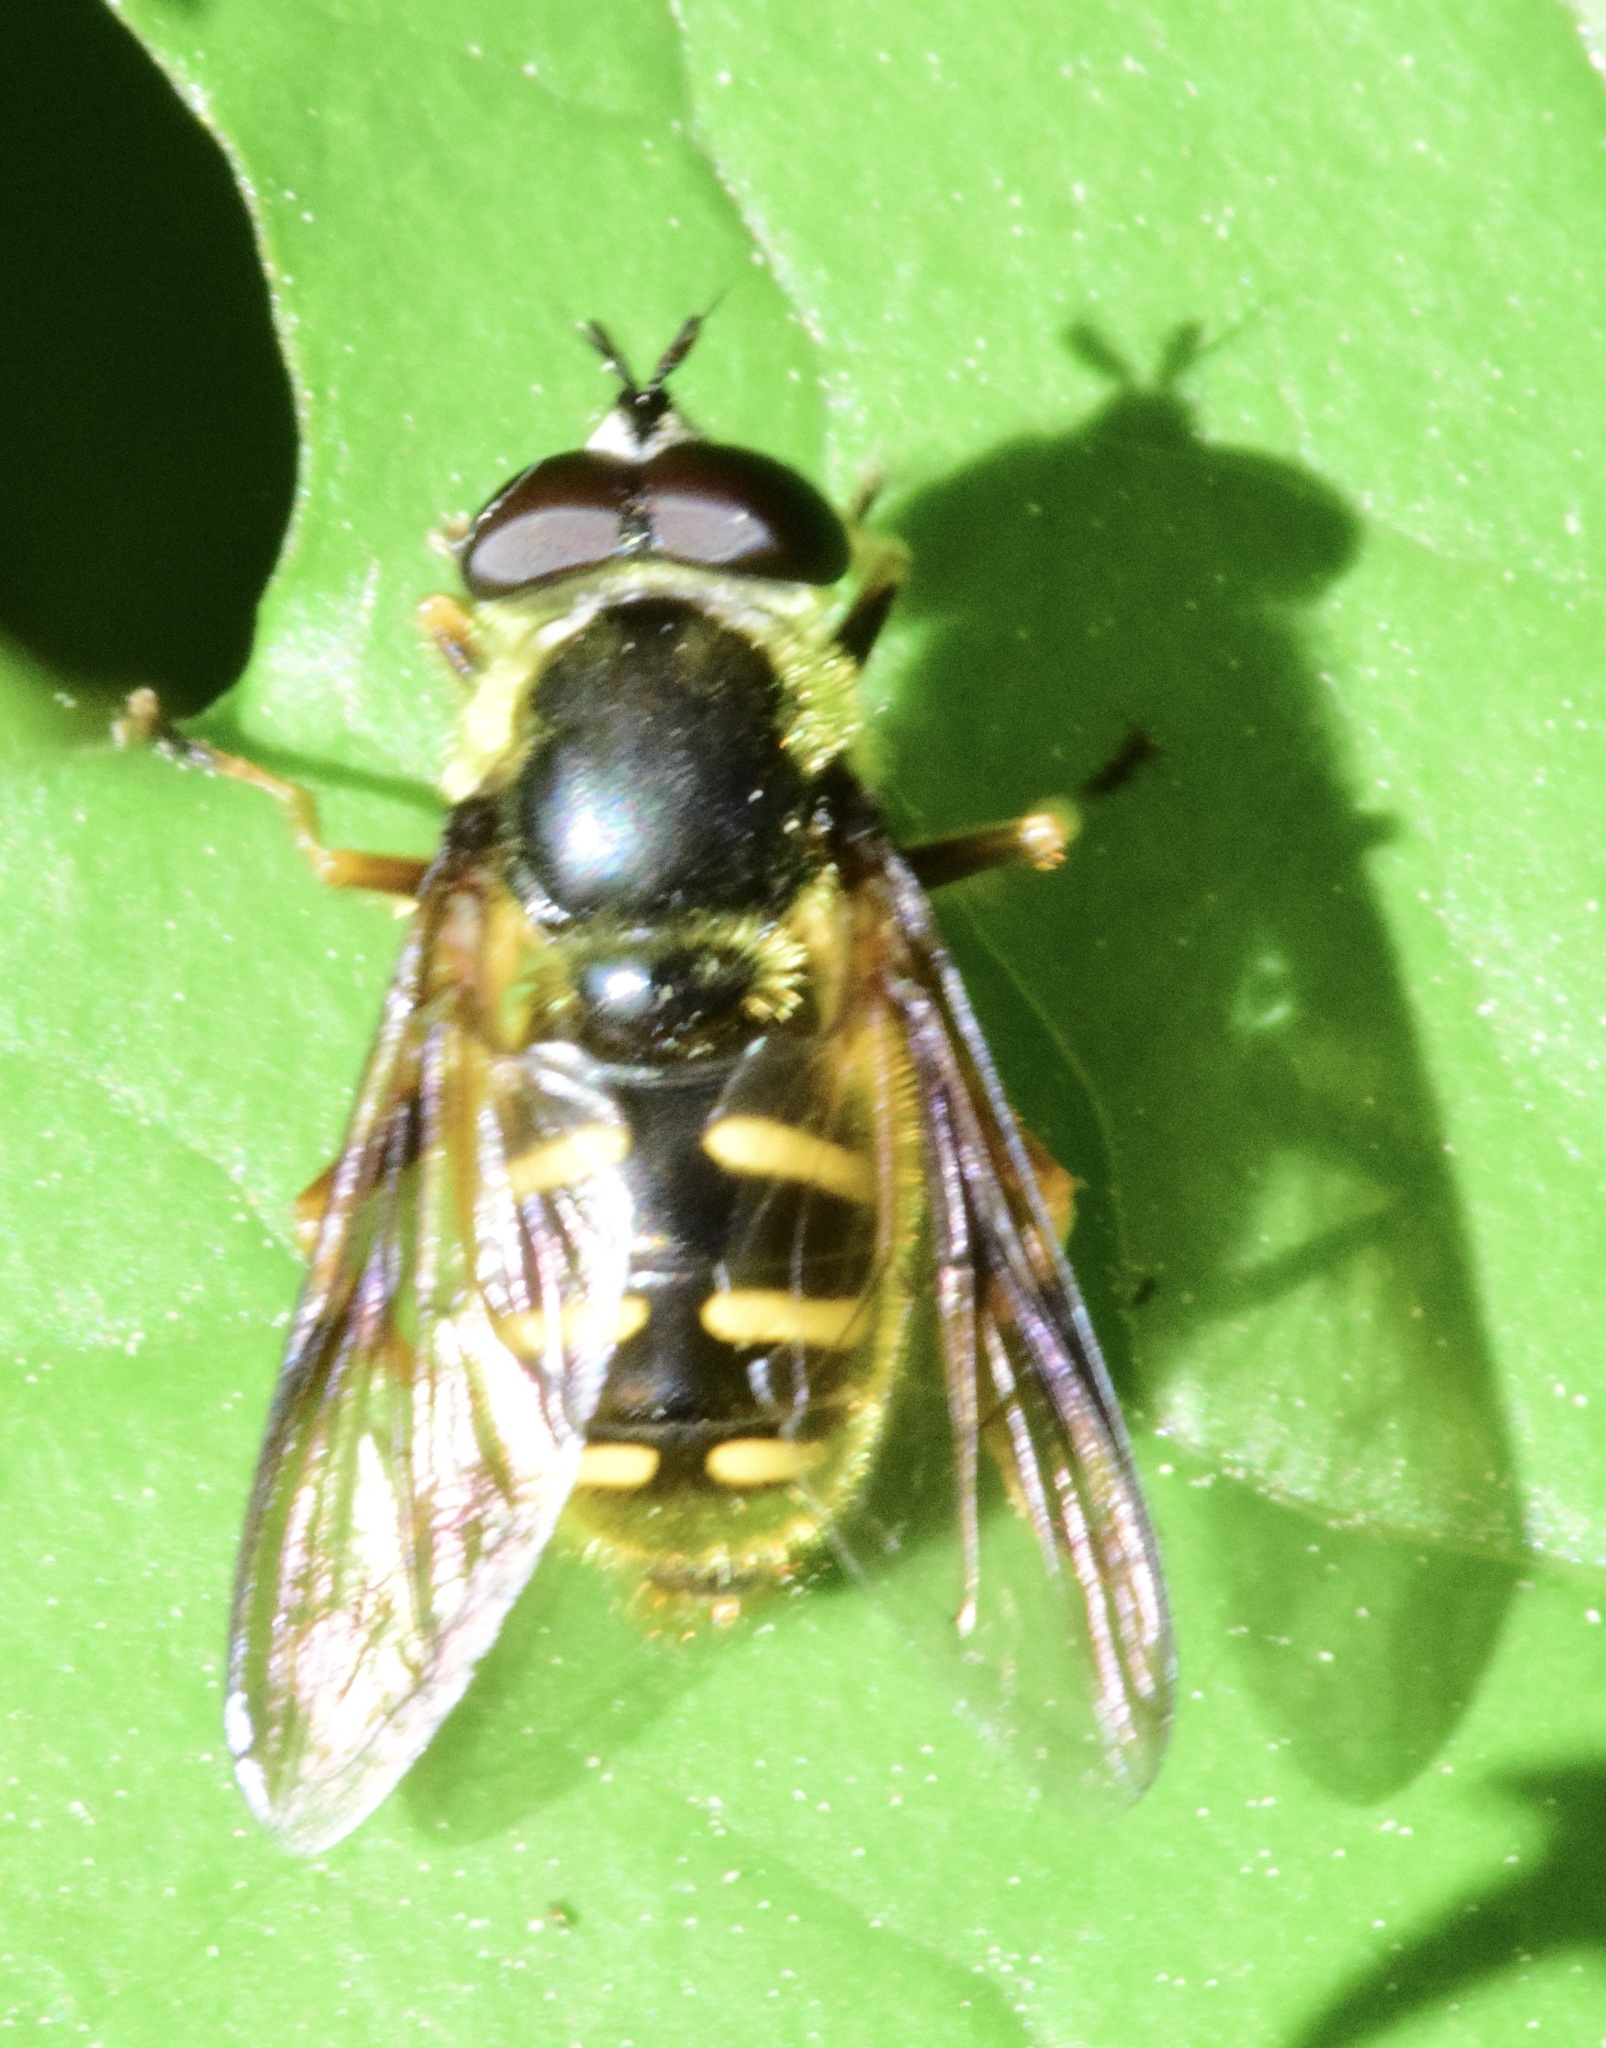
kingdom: Animalia
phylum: Arthropoda
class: Insecta
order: Diptera
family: Syrphidae
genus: Sericomyia
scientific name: Sericomyia chrysotoxoides
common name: Oblique-banded pond fly
